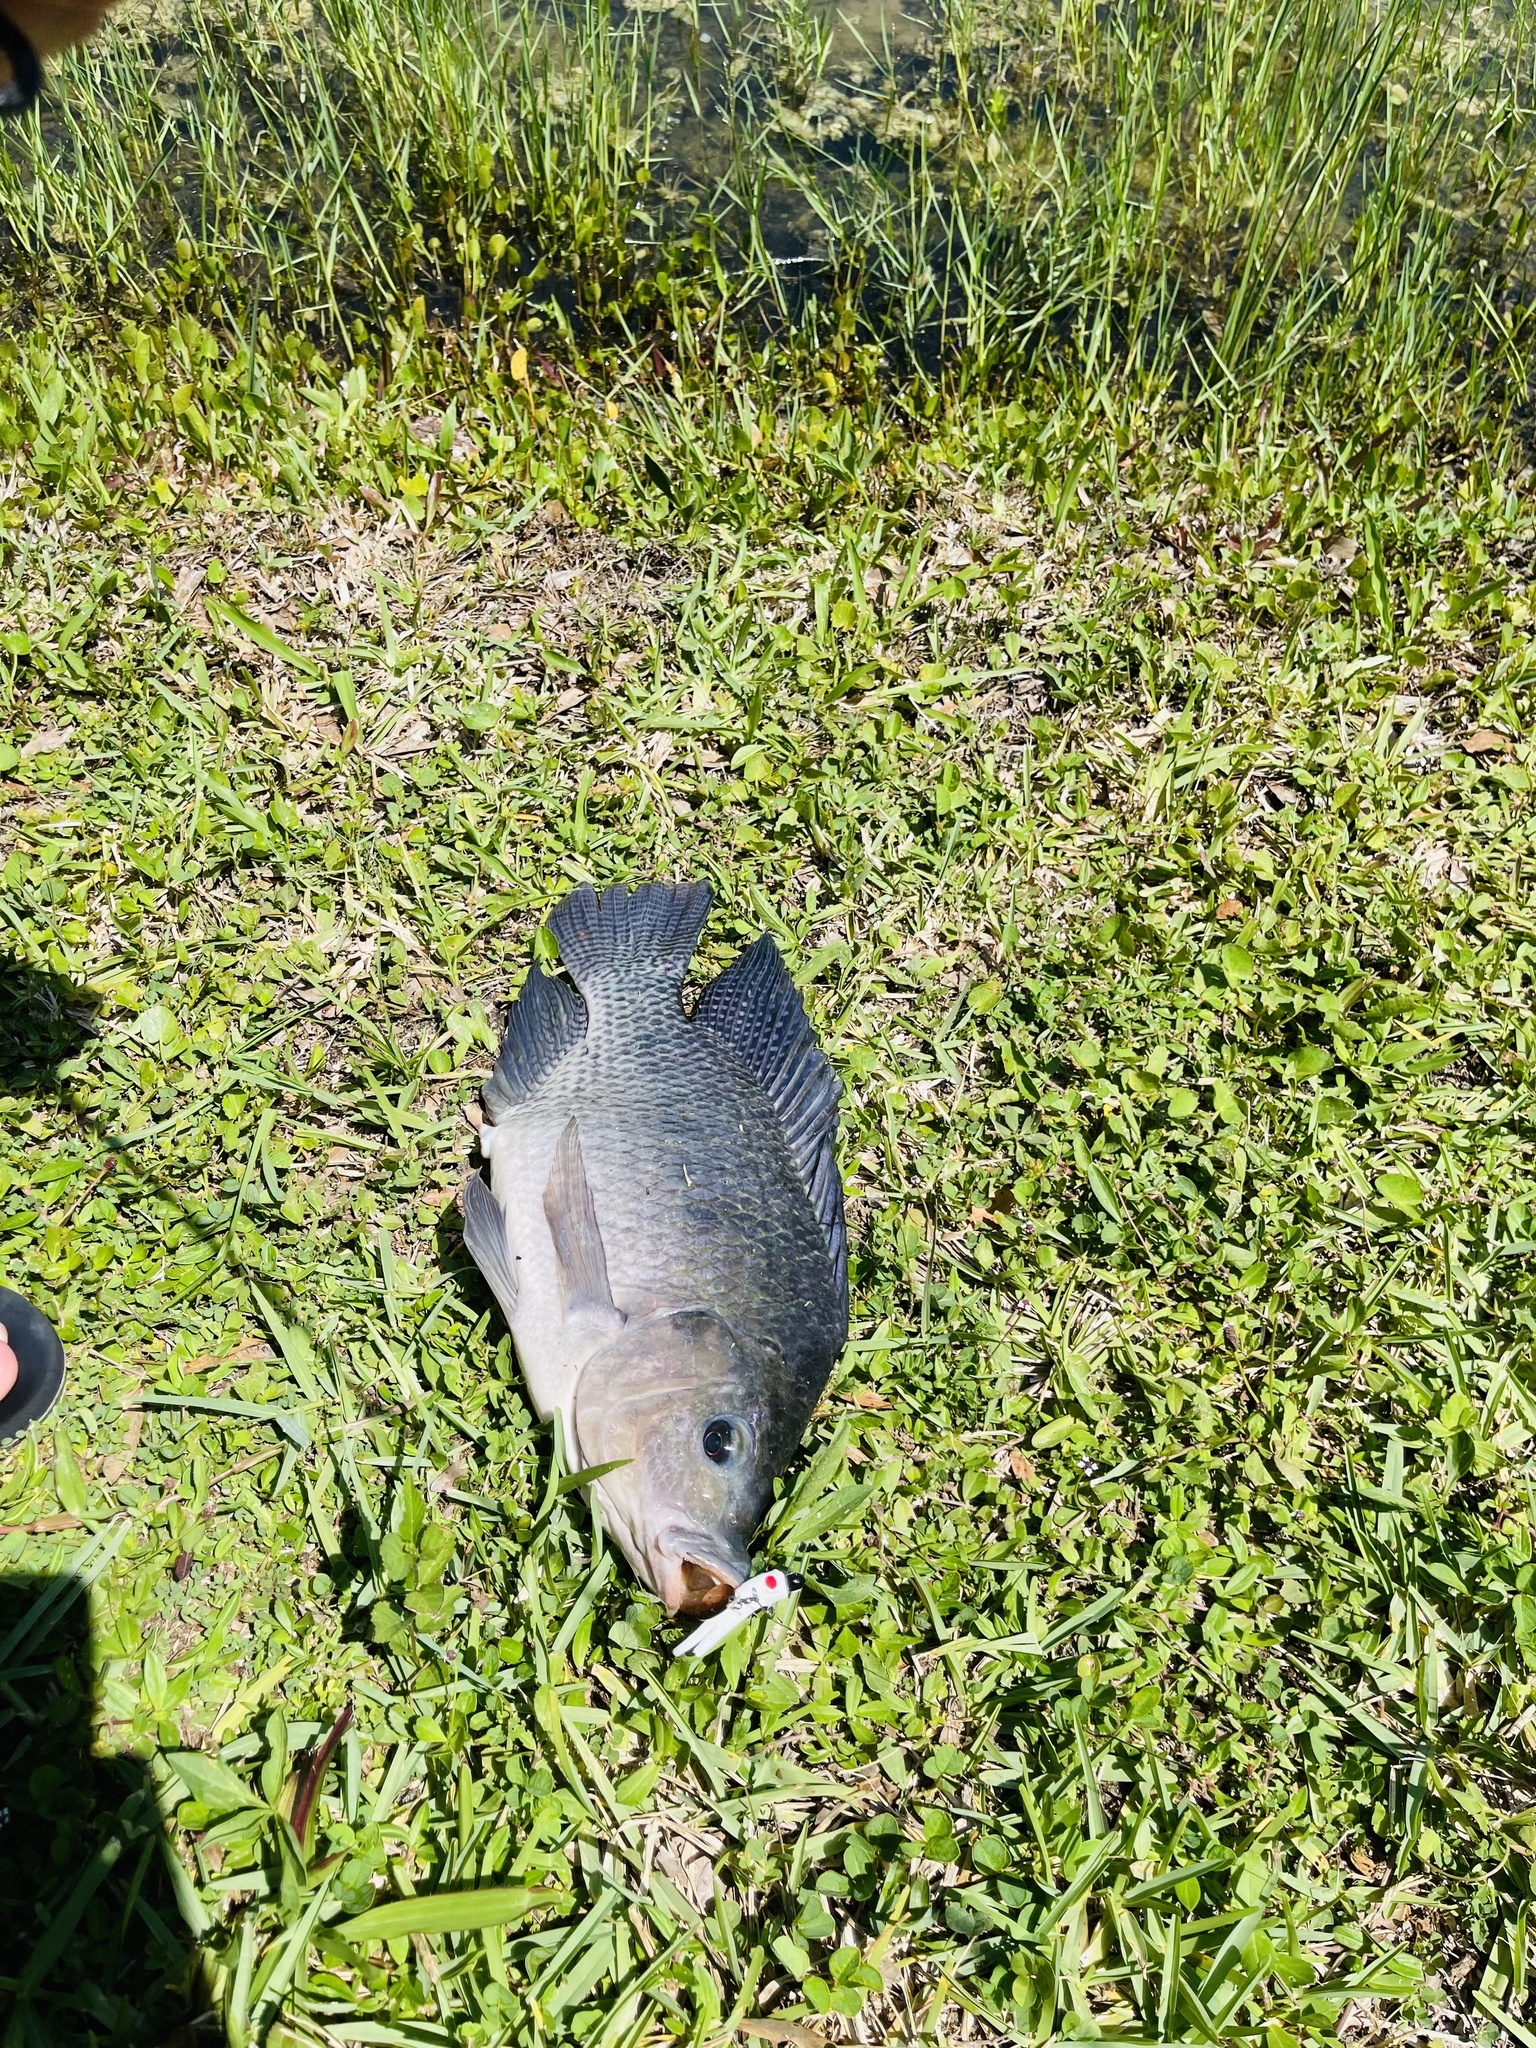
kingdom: Animalia
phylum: Chordata
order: Perciformes
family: Cichlidae
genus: Oreochromis
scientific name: Oreochromis aureus
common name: Blue tilapia
